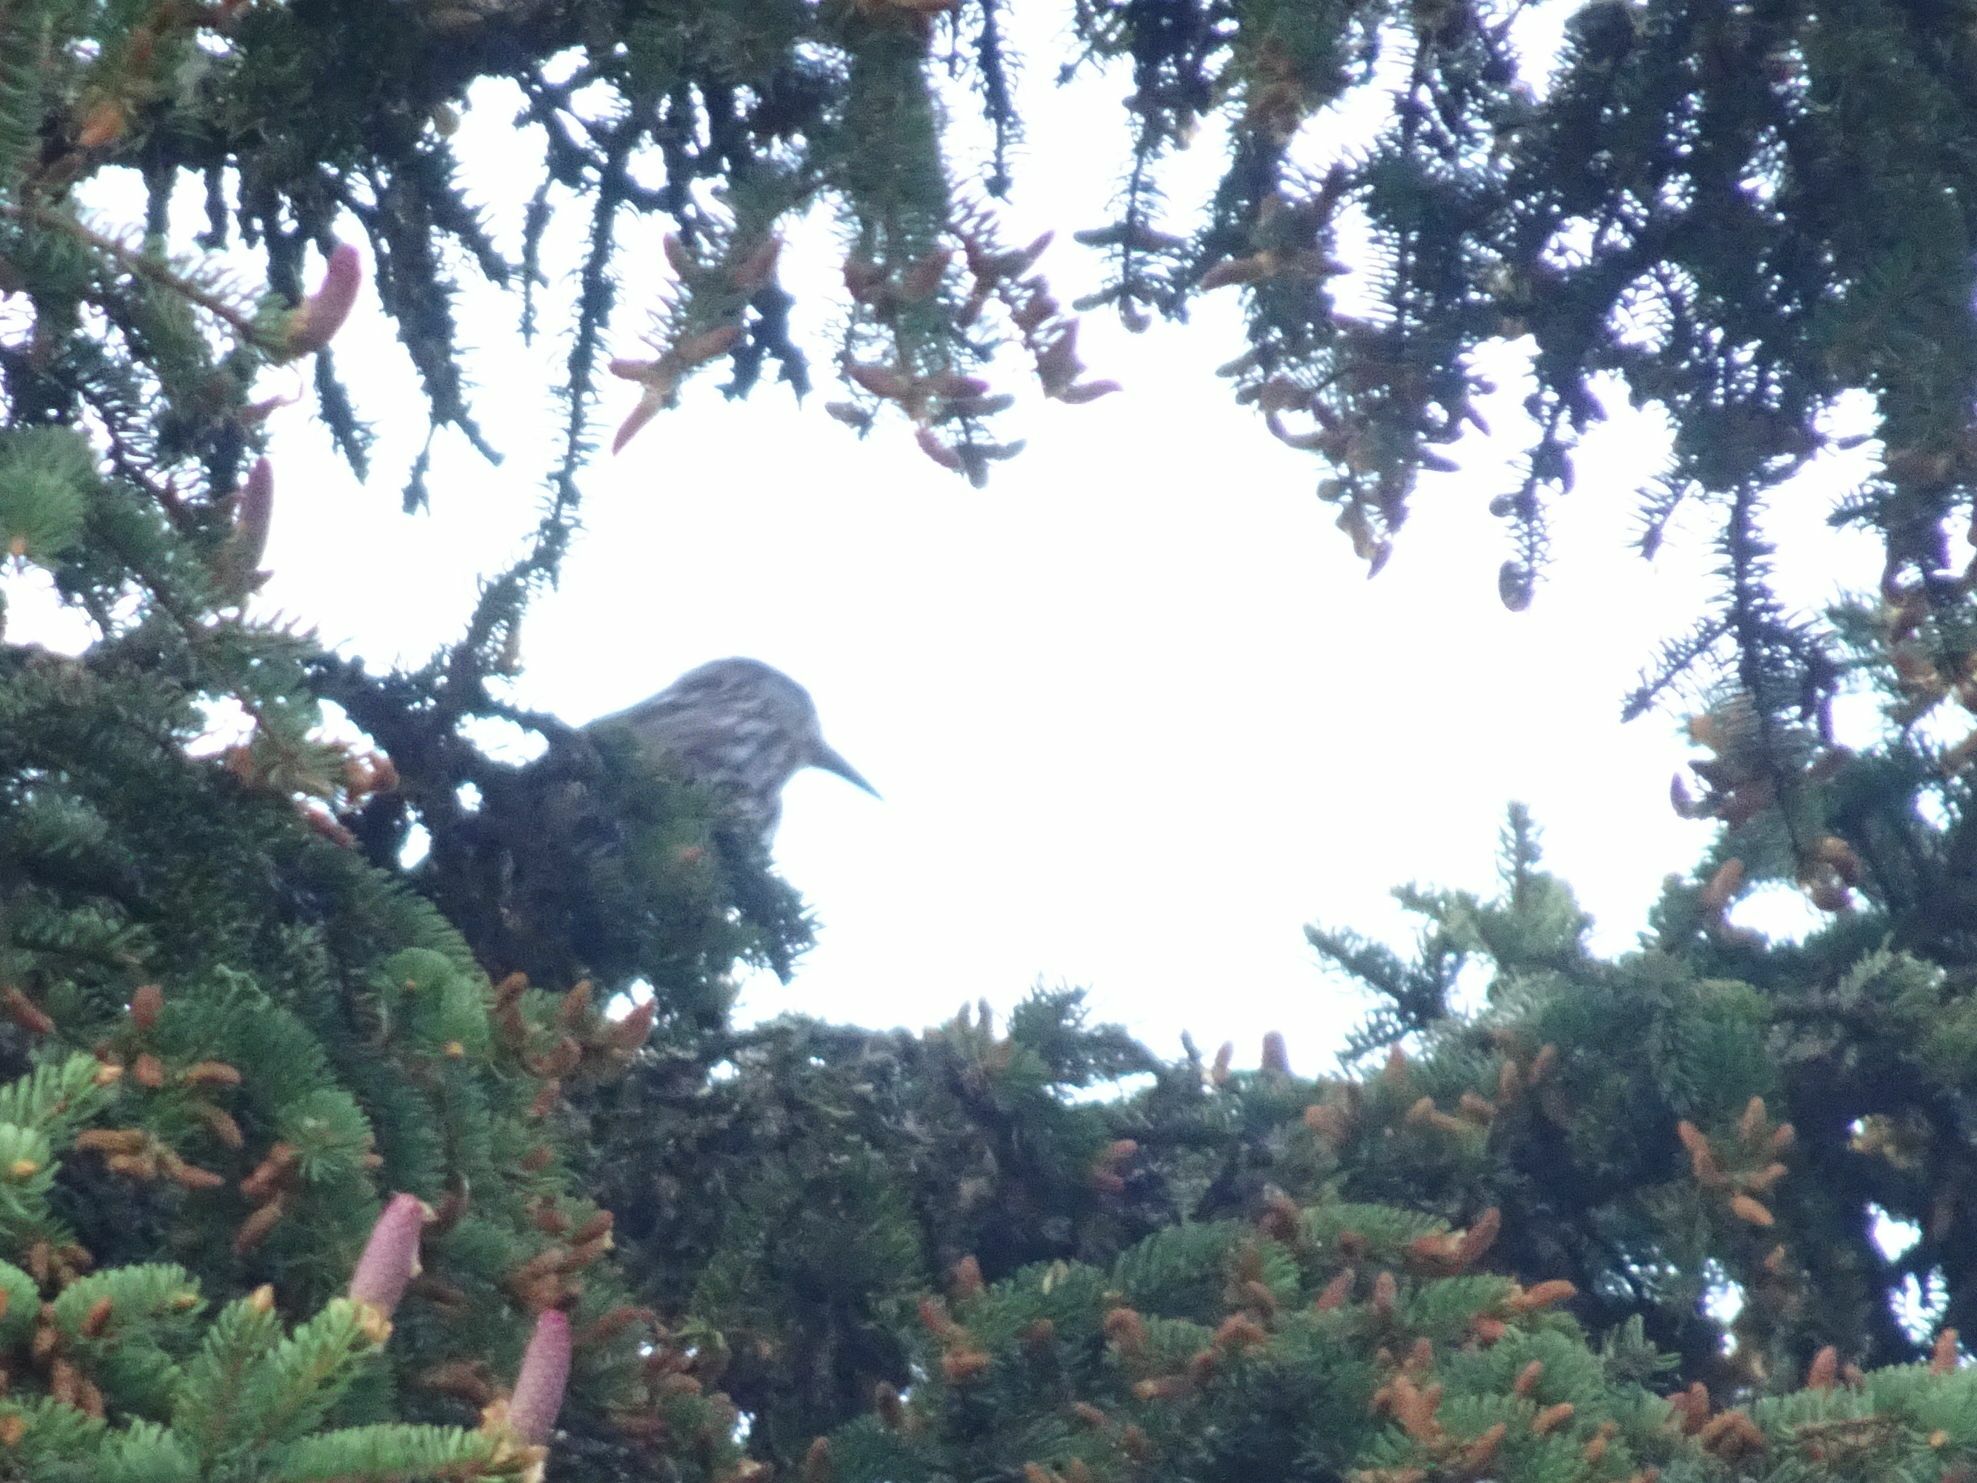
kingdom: Animalia
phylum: Chordata
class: Aves
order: Passeriformes
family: Corvidae
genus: Nucifraga
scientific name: Nucifraga caryocatactes
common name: Spotted nutcracker
